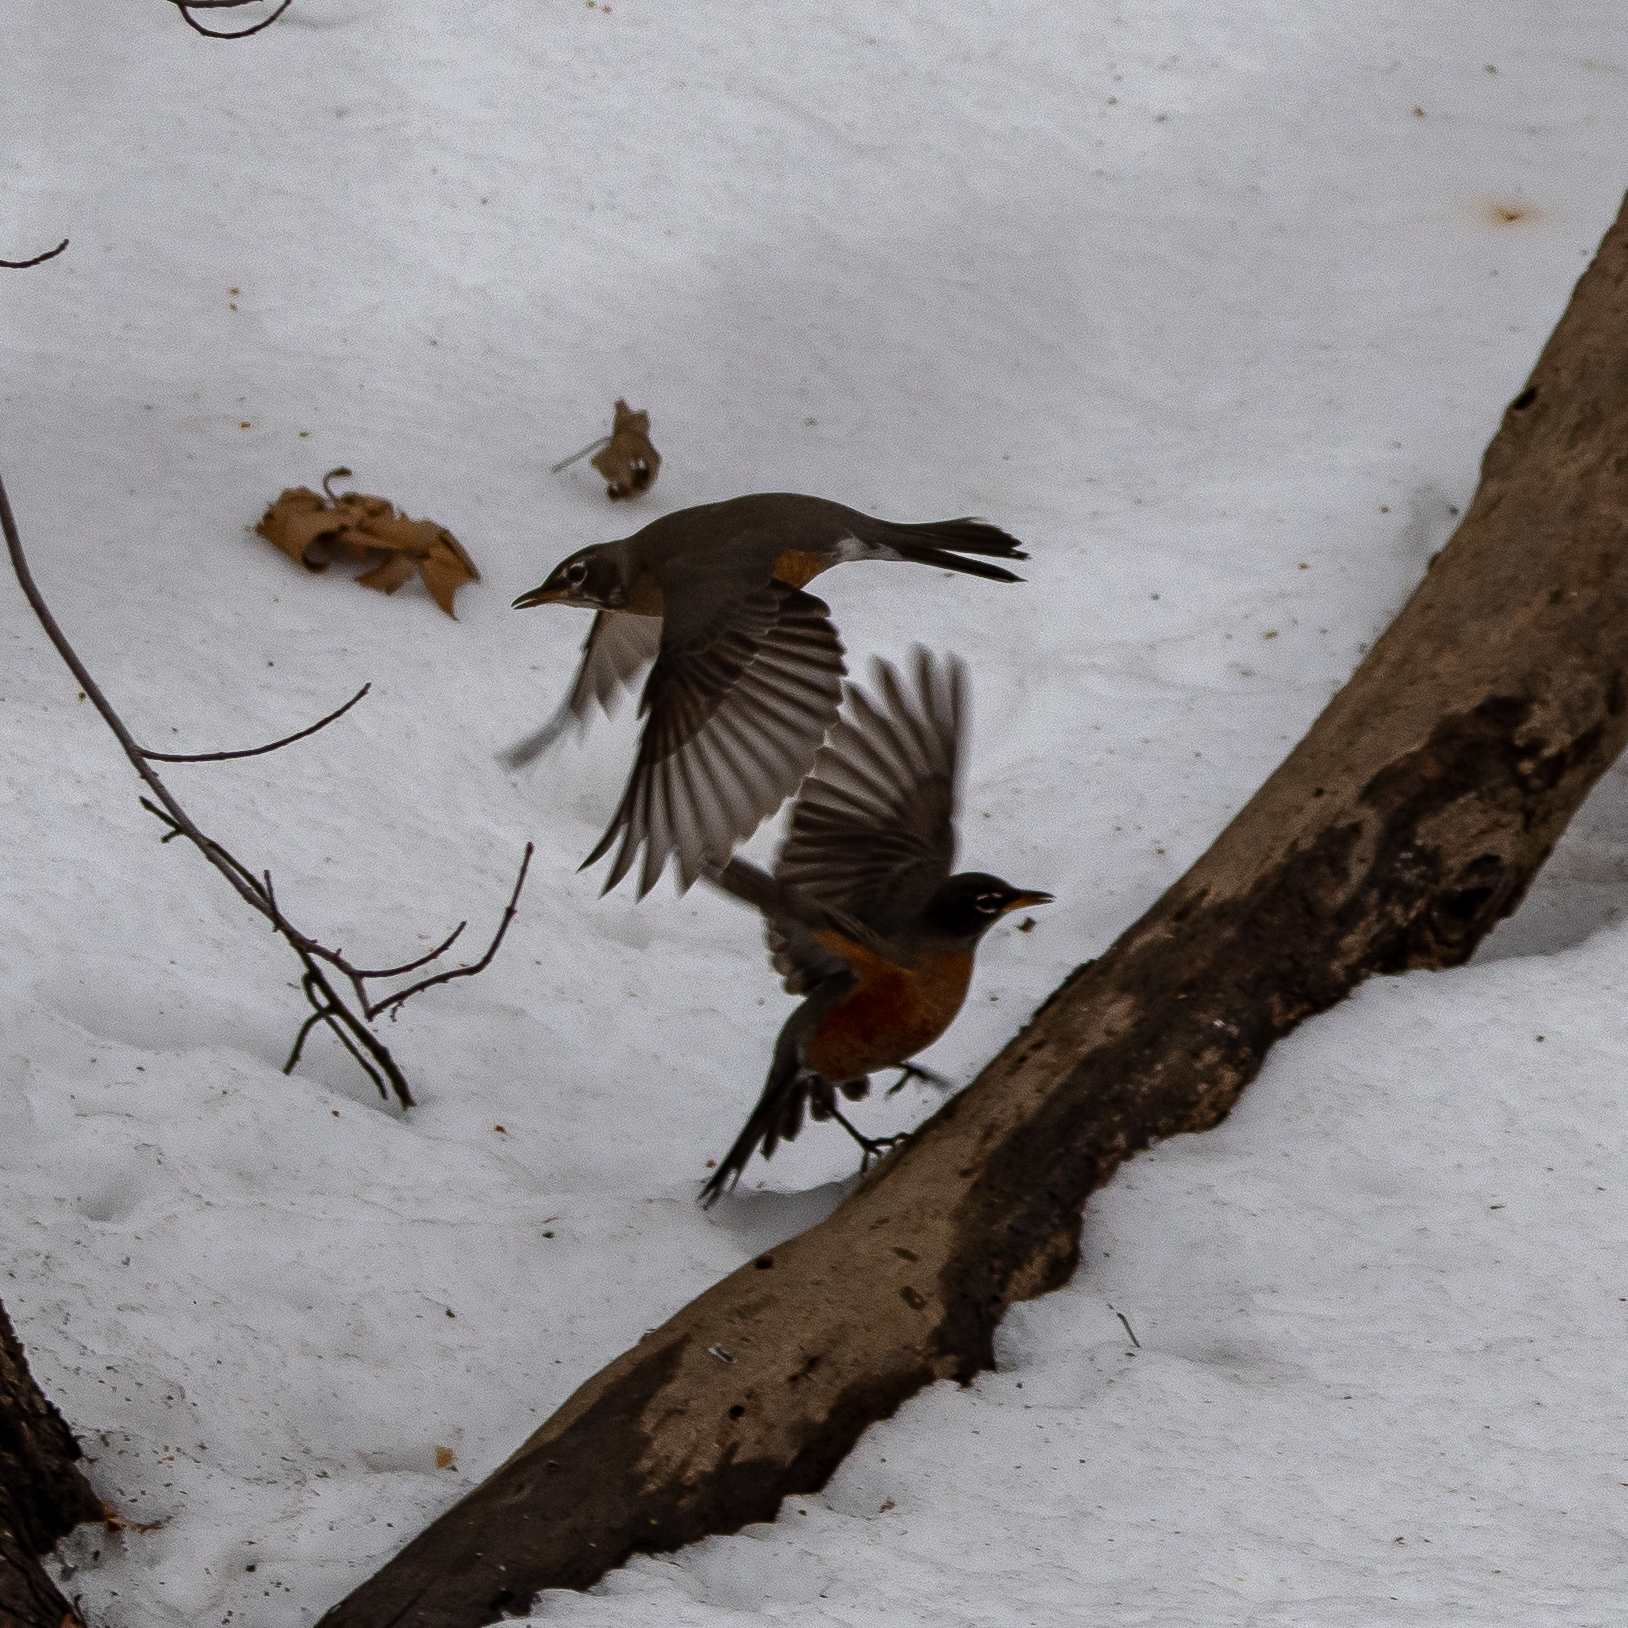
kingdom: Animalia
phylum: Chordata
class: Aves
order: Passeriformes
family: Turdidae
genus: Turdus
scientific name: Turdus migratorius
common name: American robin
